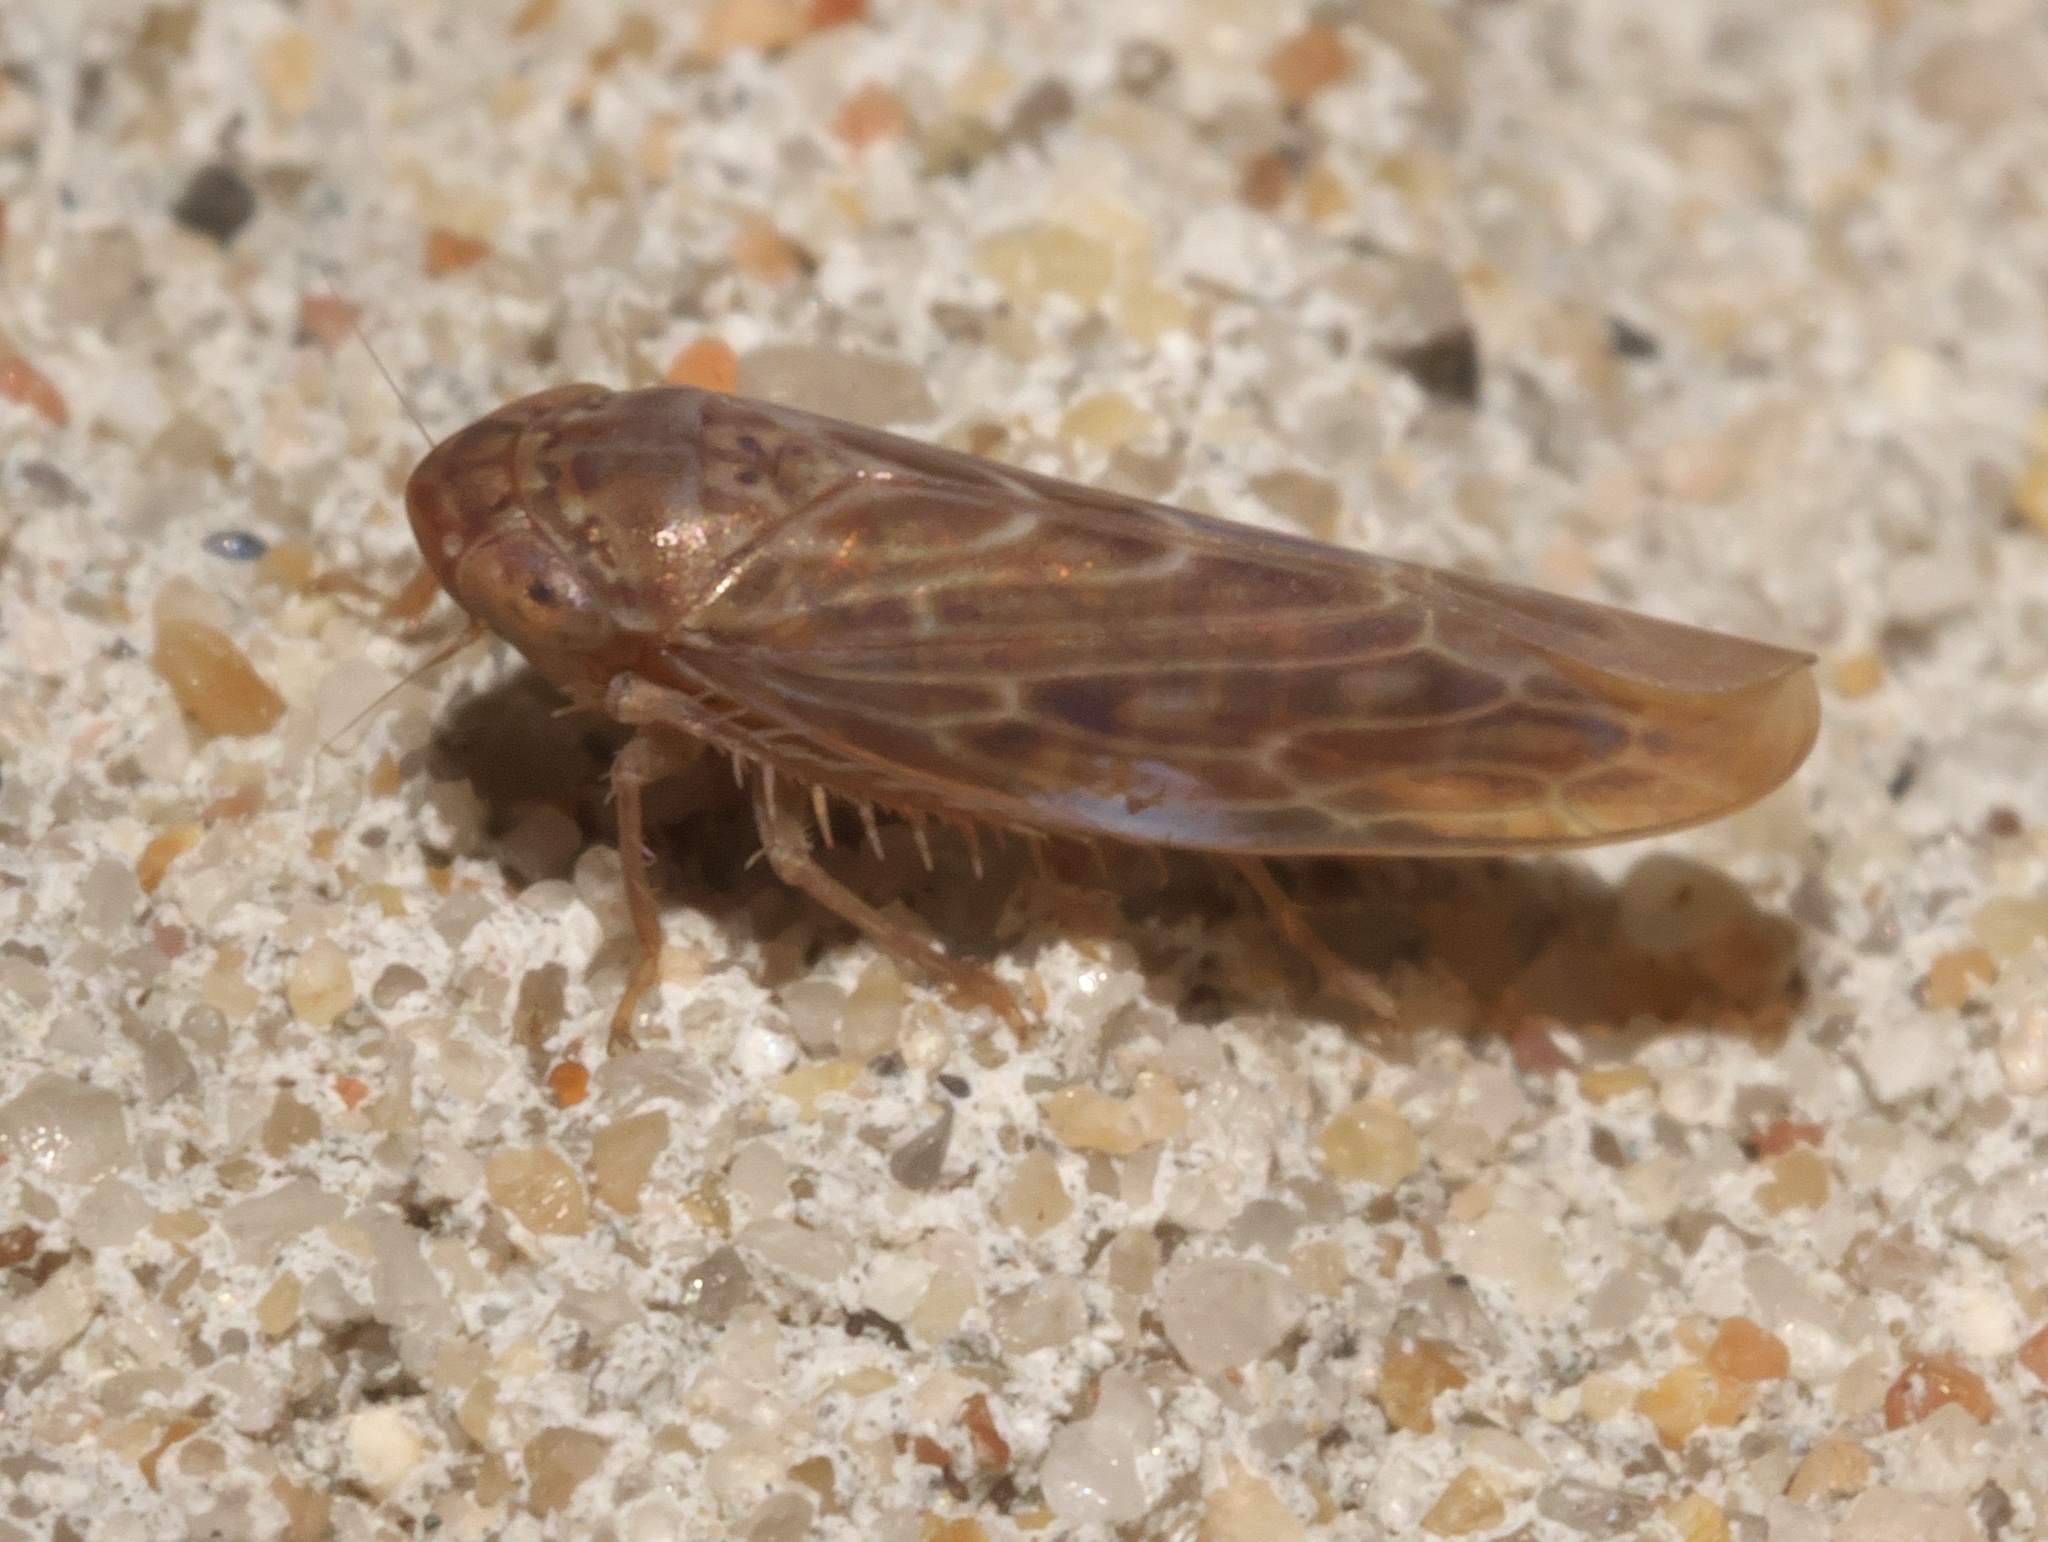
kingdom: Animalia
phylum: Arthropoda
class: Insecta
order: Hemiptera
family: Cicadellidae
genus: Doleranus
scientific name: Doleranus longulus
